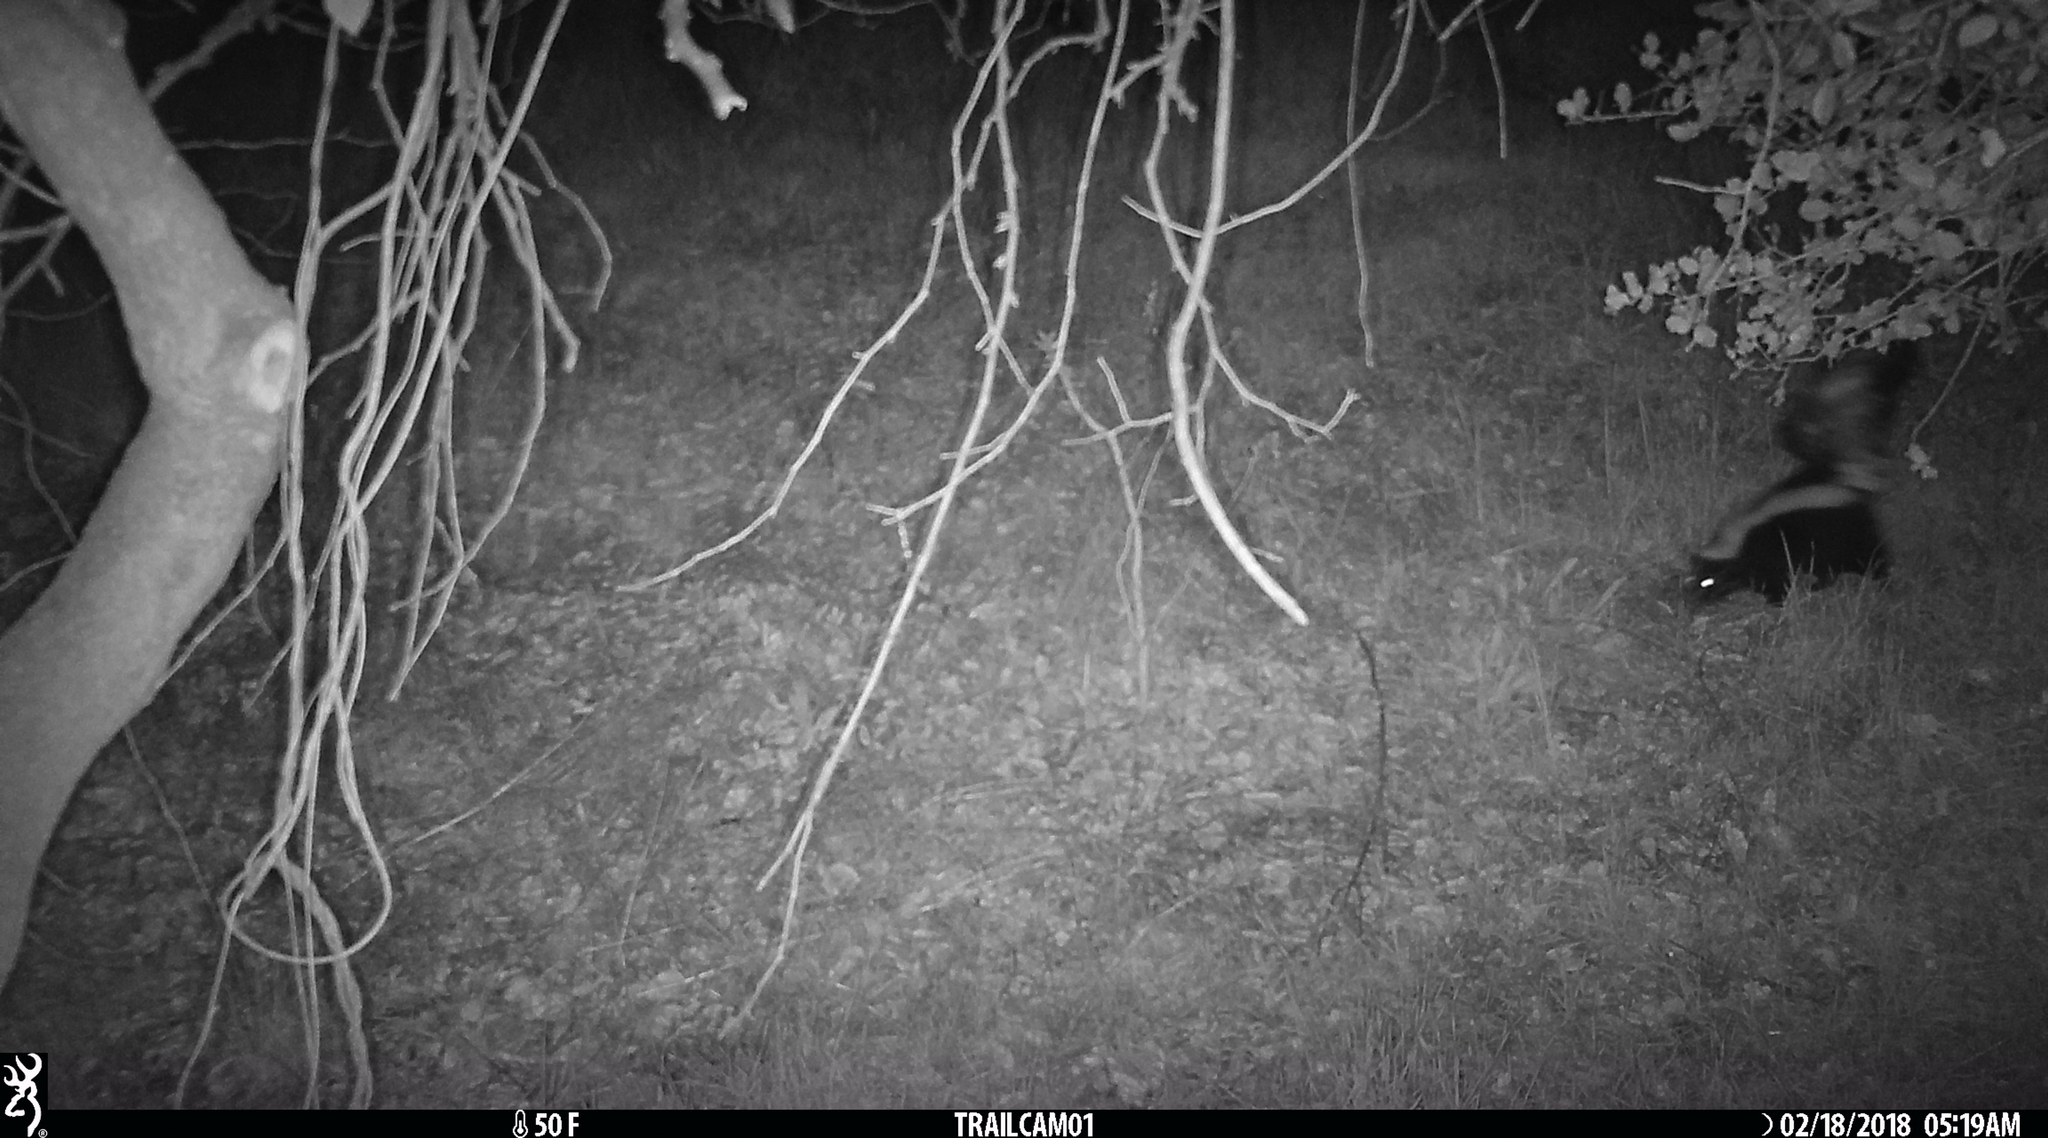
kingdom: Animalia
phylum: Chordata
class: Mammalia
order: Carnivora
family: Mephitidae
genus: Mephitis
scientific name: Mephitis mephitis
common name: Striped skunk
